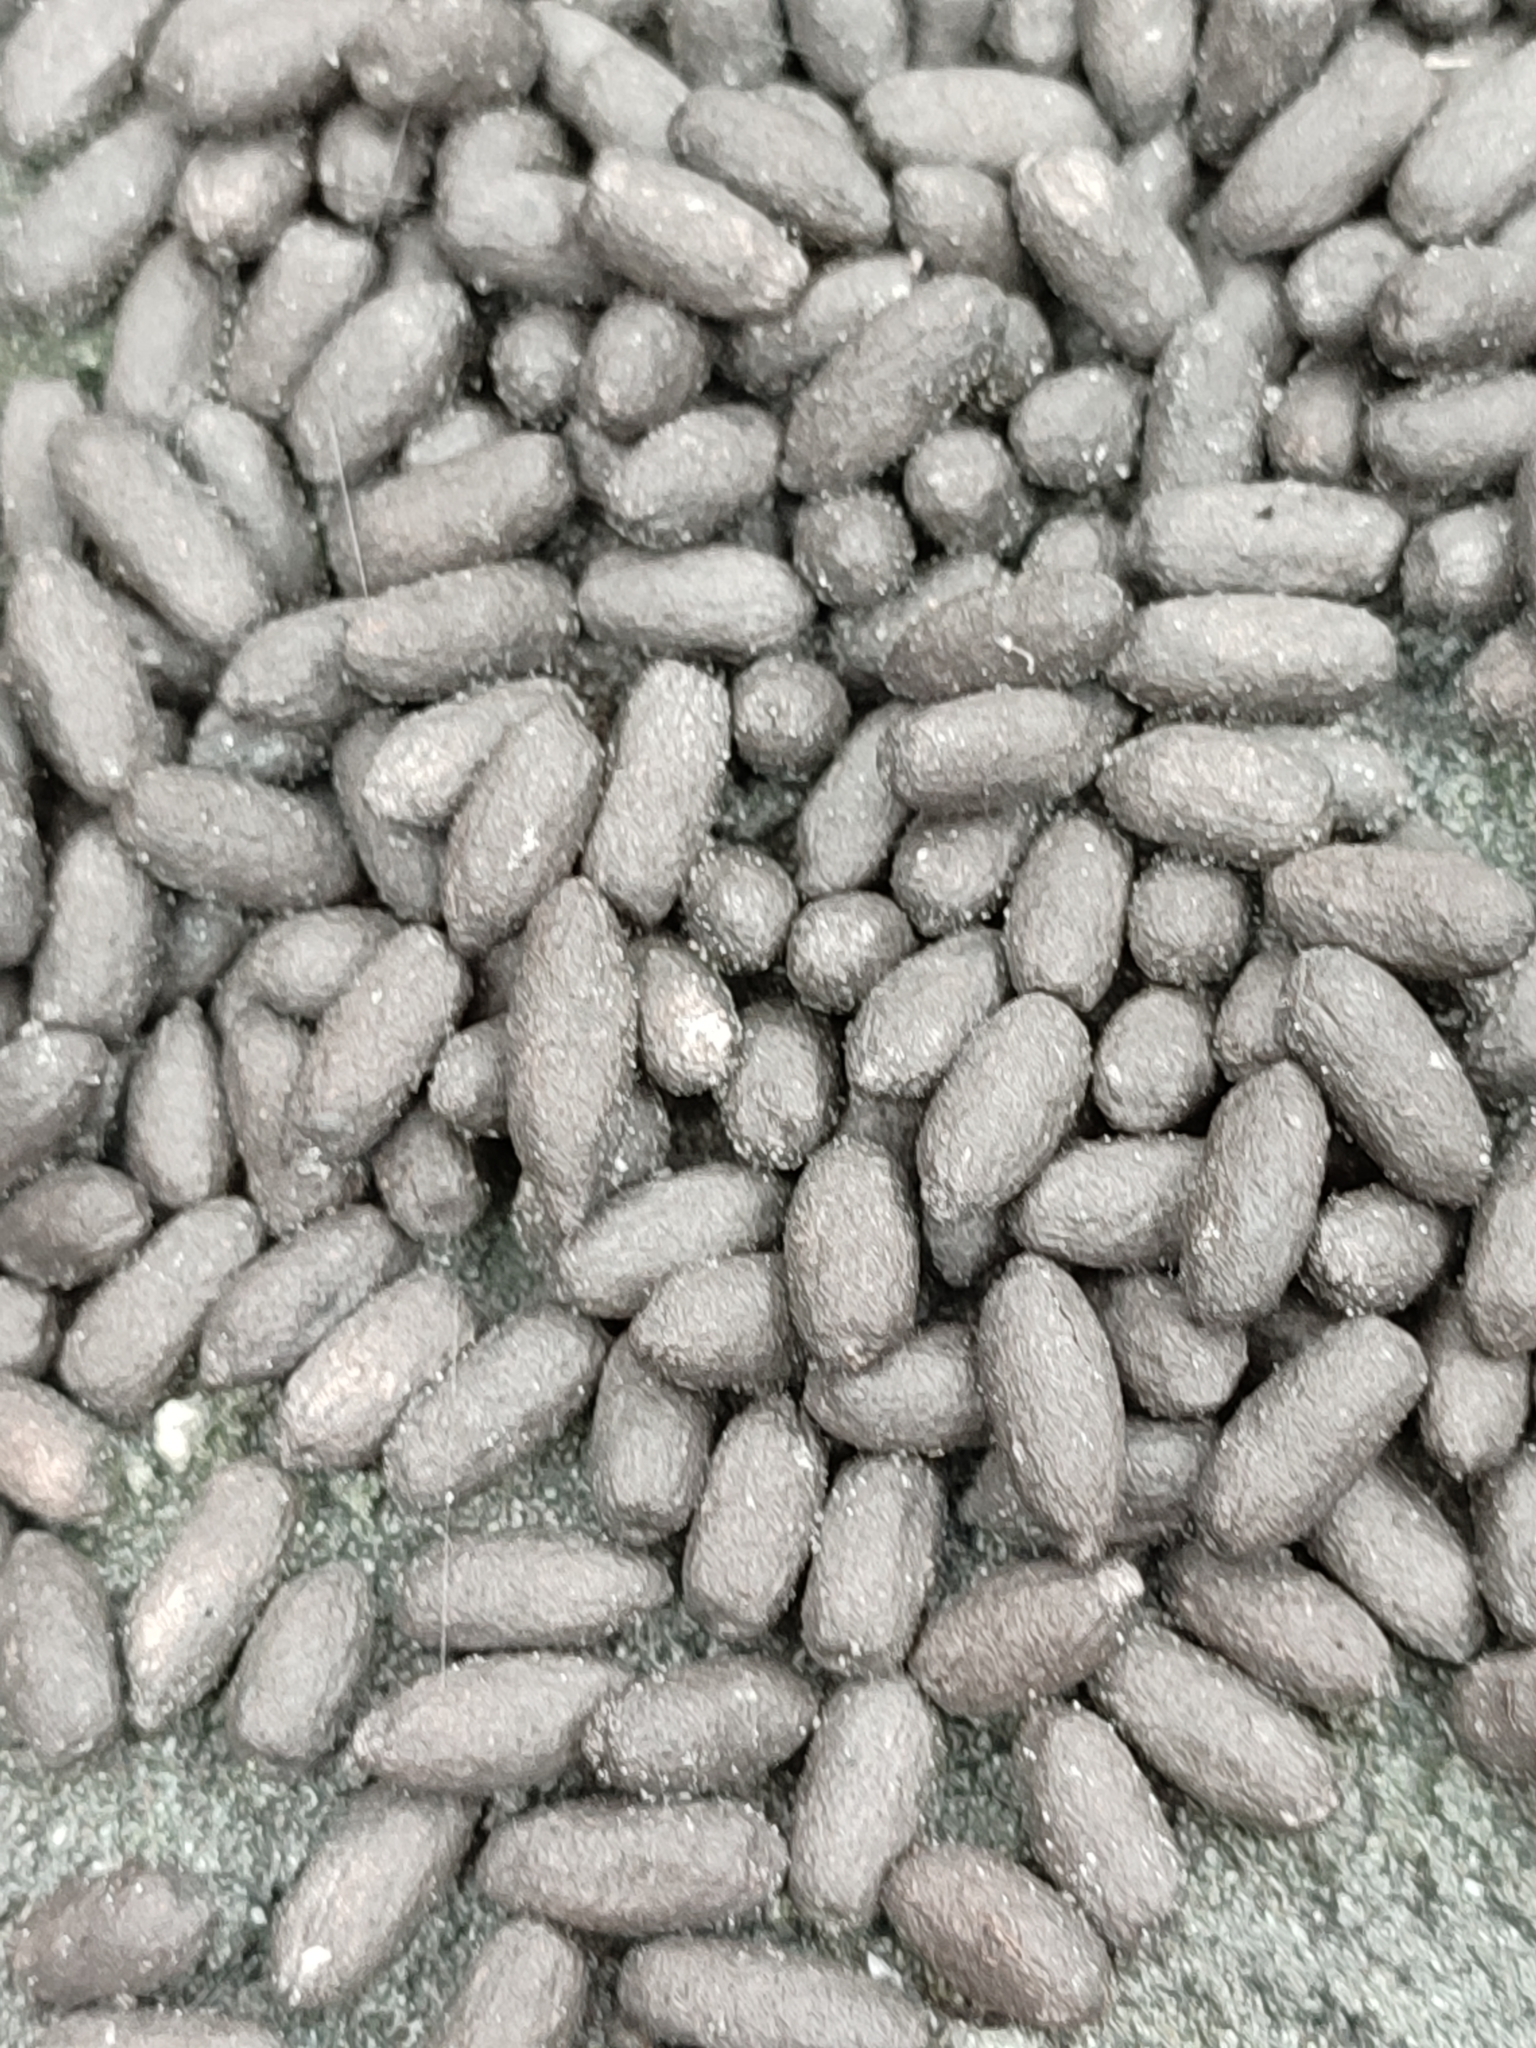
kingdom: Animalia
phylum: Chordata
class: Mammalia
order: Artiodactyla
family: Bovidae
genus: Capricornis
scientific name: Capricornis swinhoei
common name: Formosan serow
